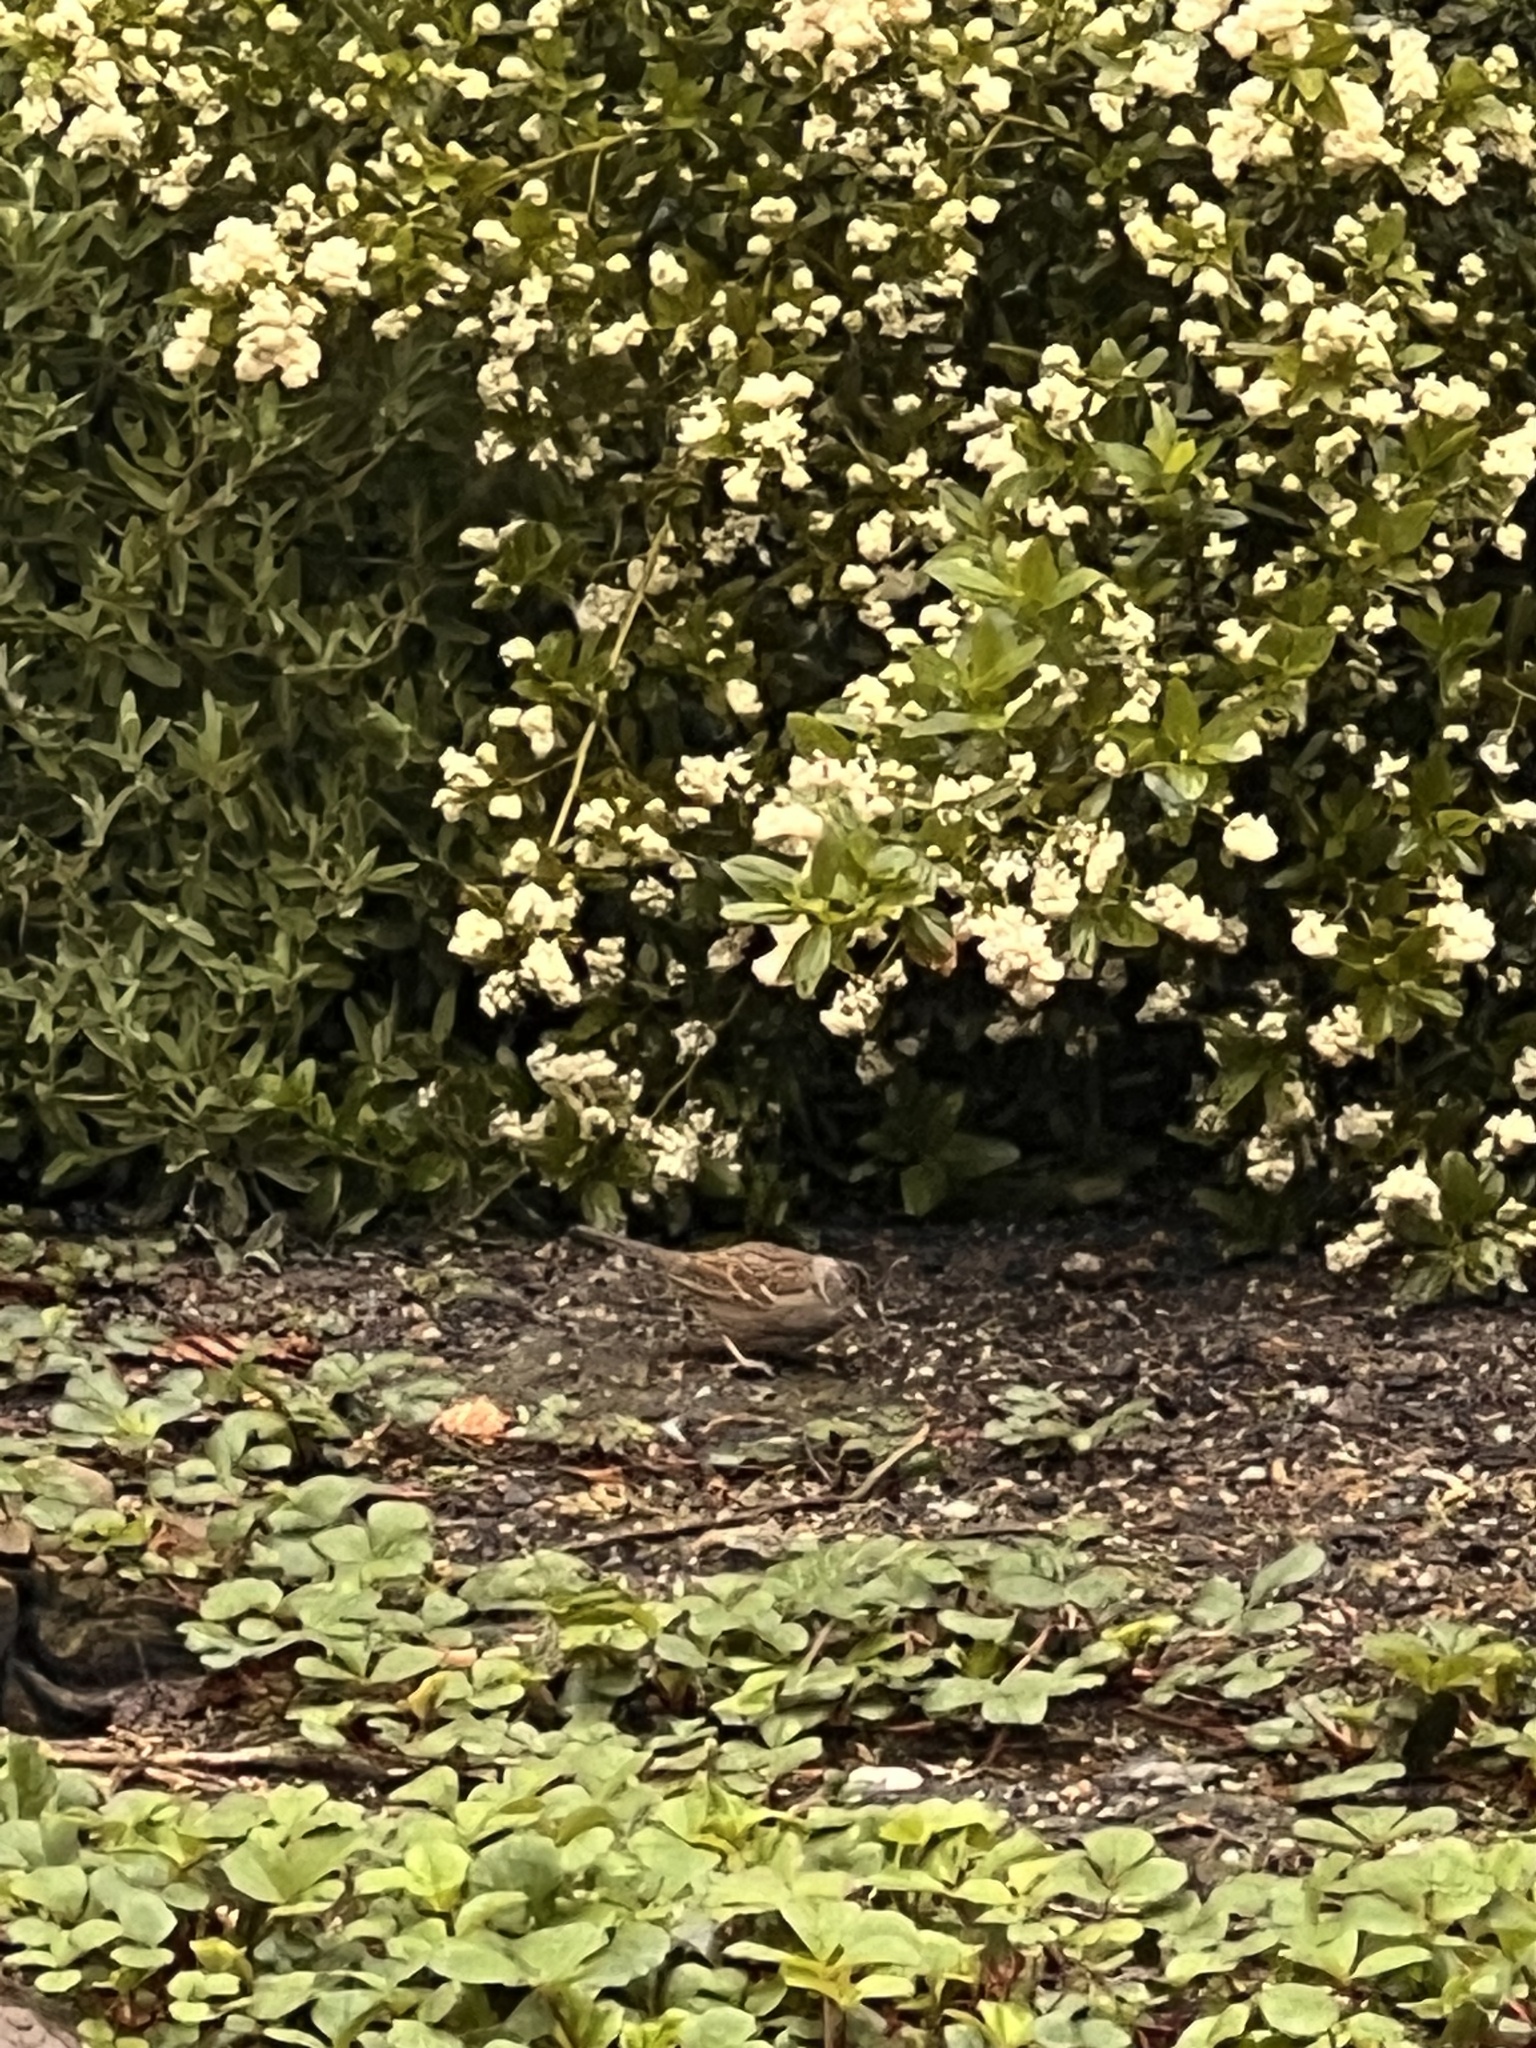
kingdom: Animalia
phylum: Chordata
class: Aves
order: Passeriformes
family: Passerellidae
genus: Zonotrichia
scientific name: Zonotrichia atricapilla
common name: Golden-crowned sparrow
